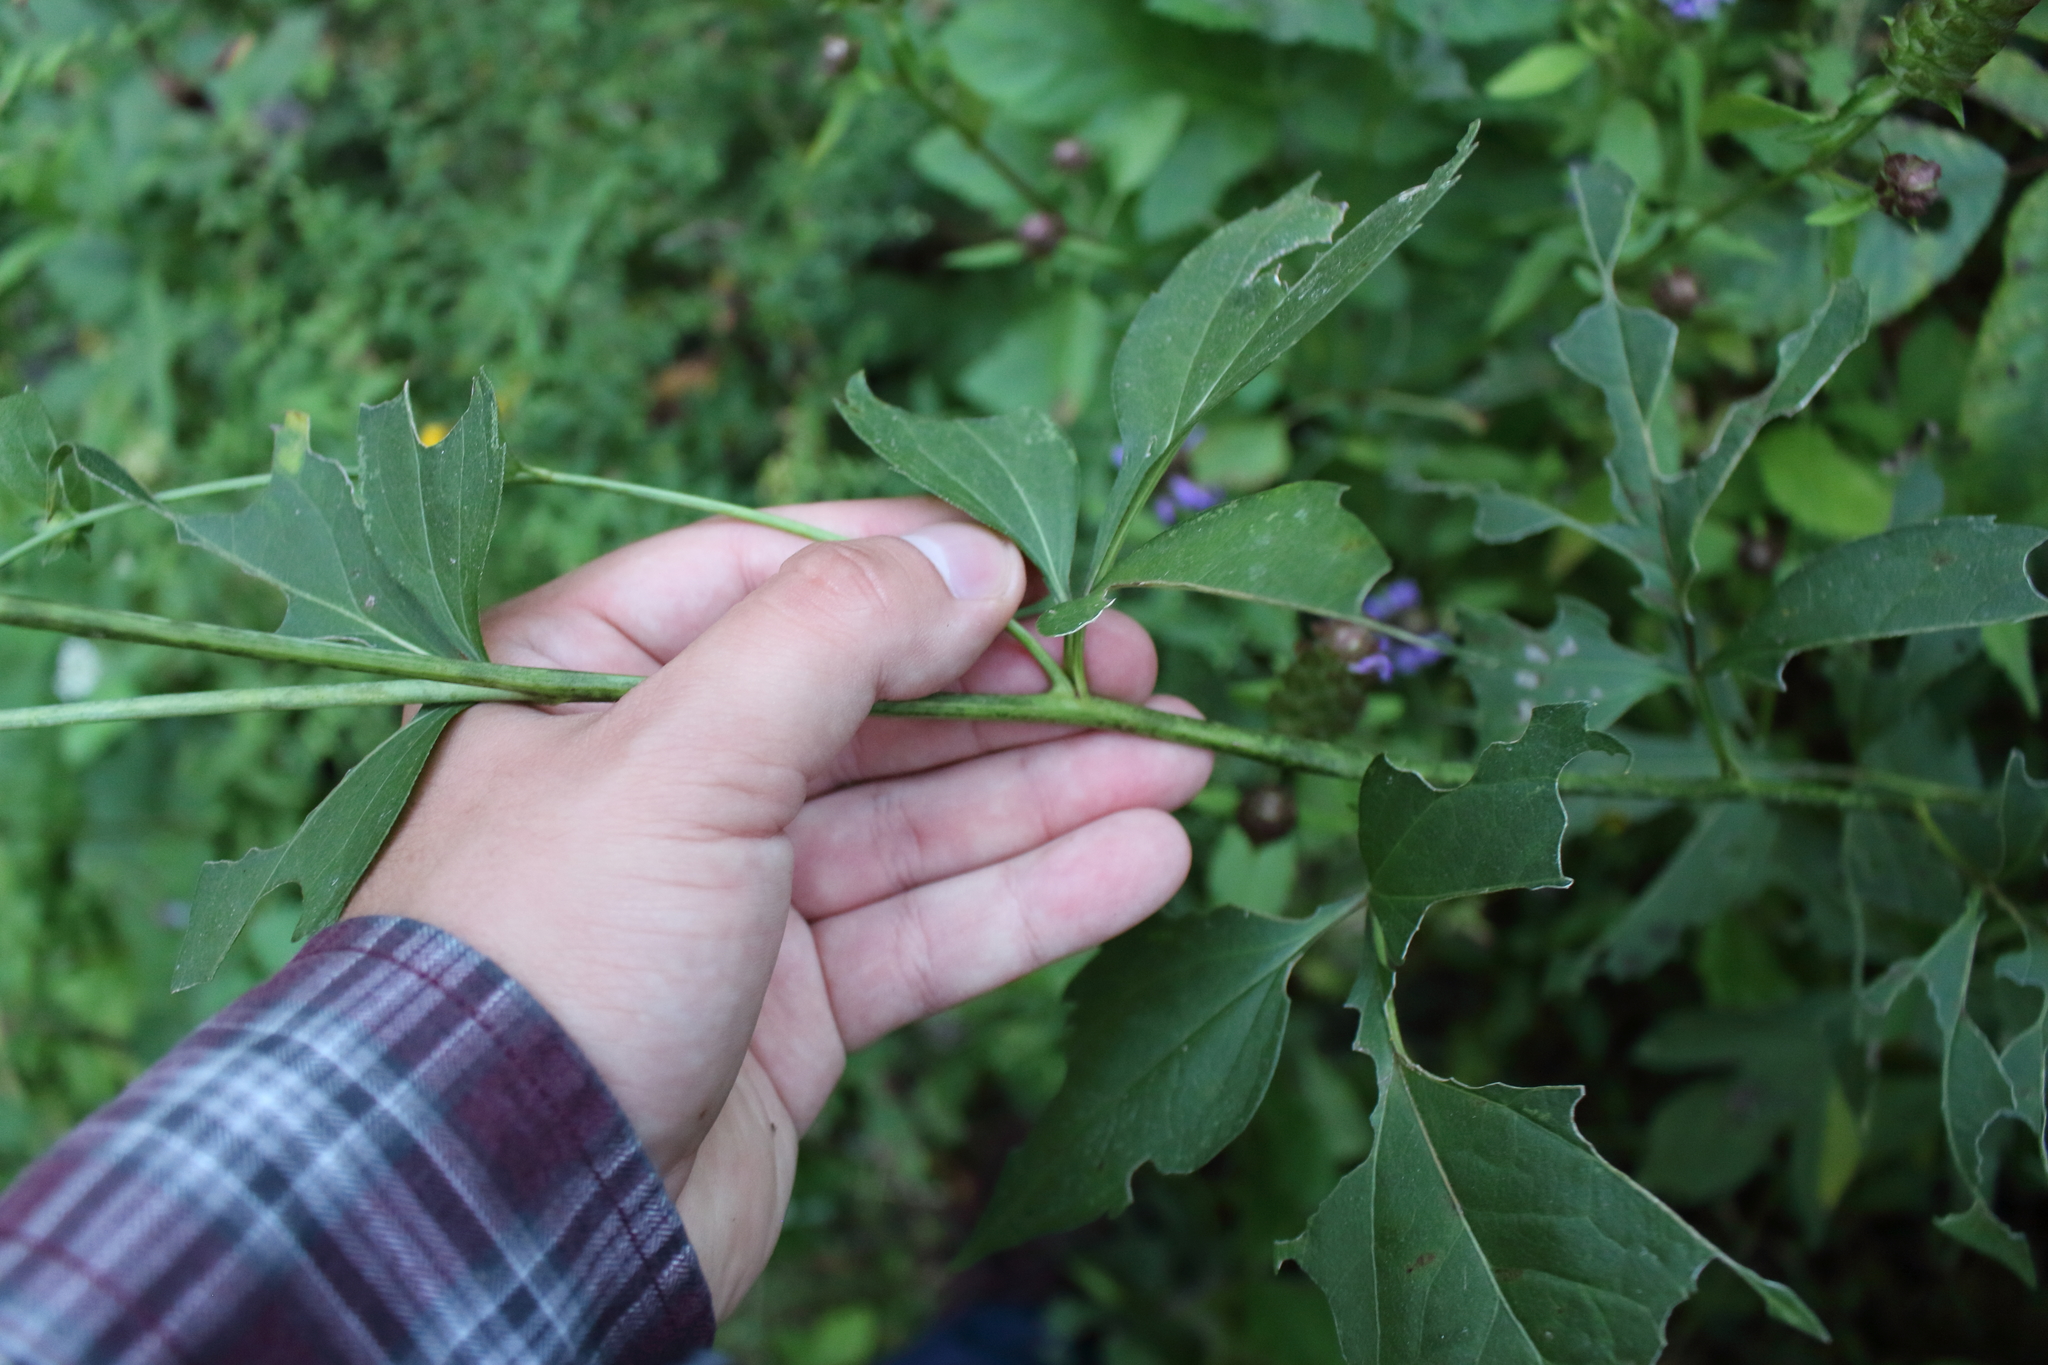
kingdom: Plantae
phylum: Tracheophyta
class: Magnoliopsida
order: Asterales
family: Asteraceae
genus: Rudbeckia
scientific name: Rudbeckia laciniata
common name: Coneflower
